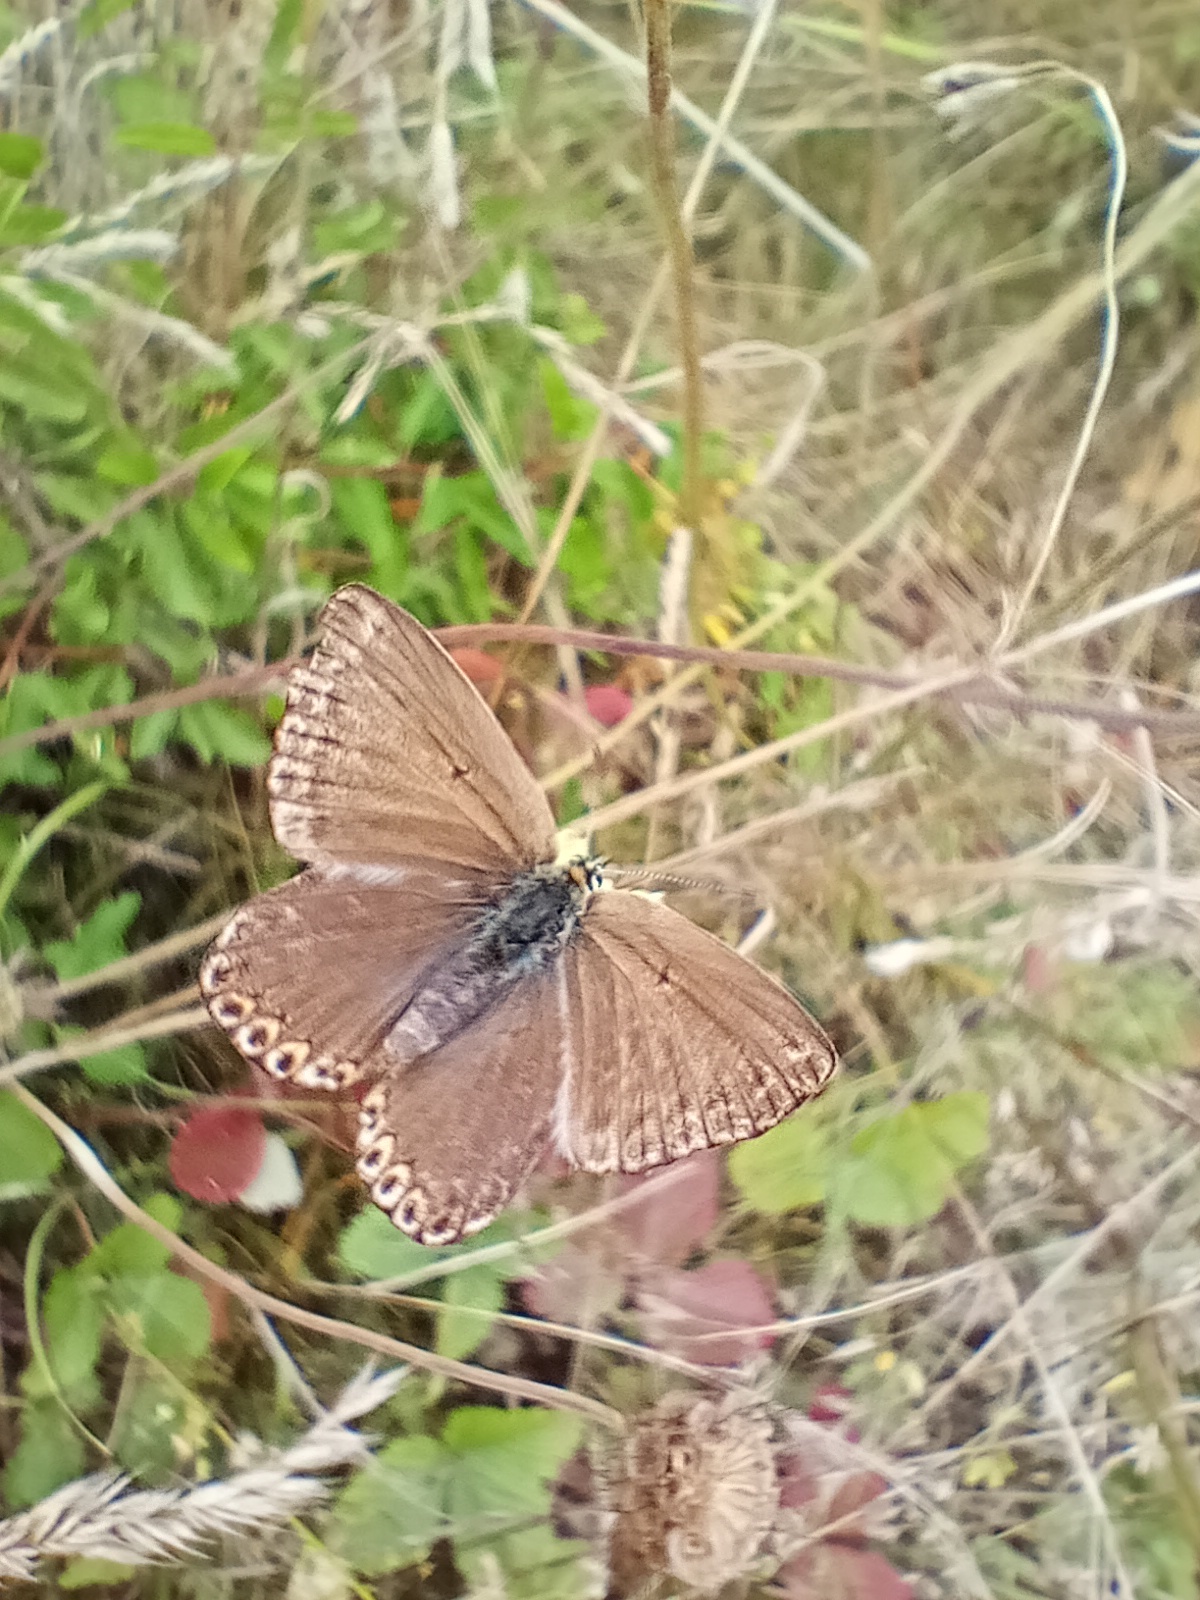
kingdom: Animalia
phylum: Arthropoda
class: Insecta
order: Lepidoptera
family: Lycaenidae
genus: Lysandra
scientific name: Lysandra coridon
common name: Chalkhill blue
